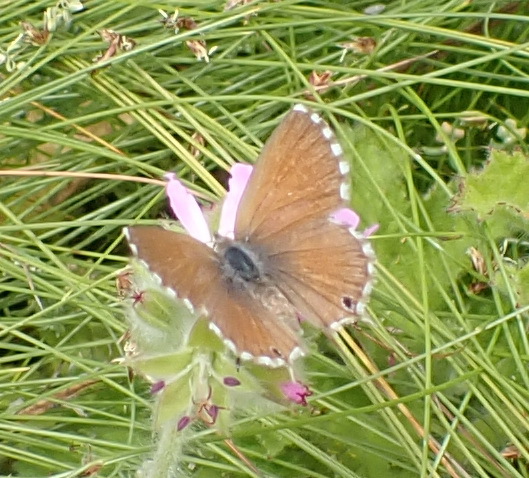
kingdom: Animalia
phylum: Arthropoda
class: Insecta
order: Lepidoptera
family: Lycaenidae
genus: Cacyreus
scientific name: Cacyreus marshalli
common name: Geranium bronze
